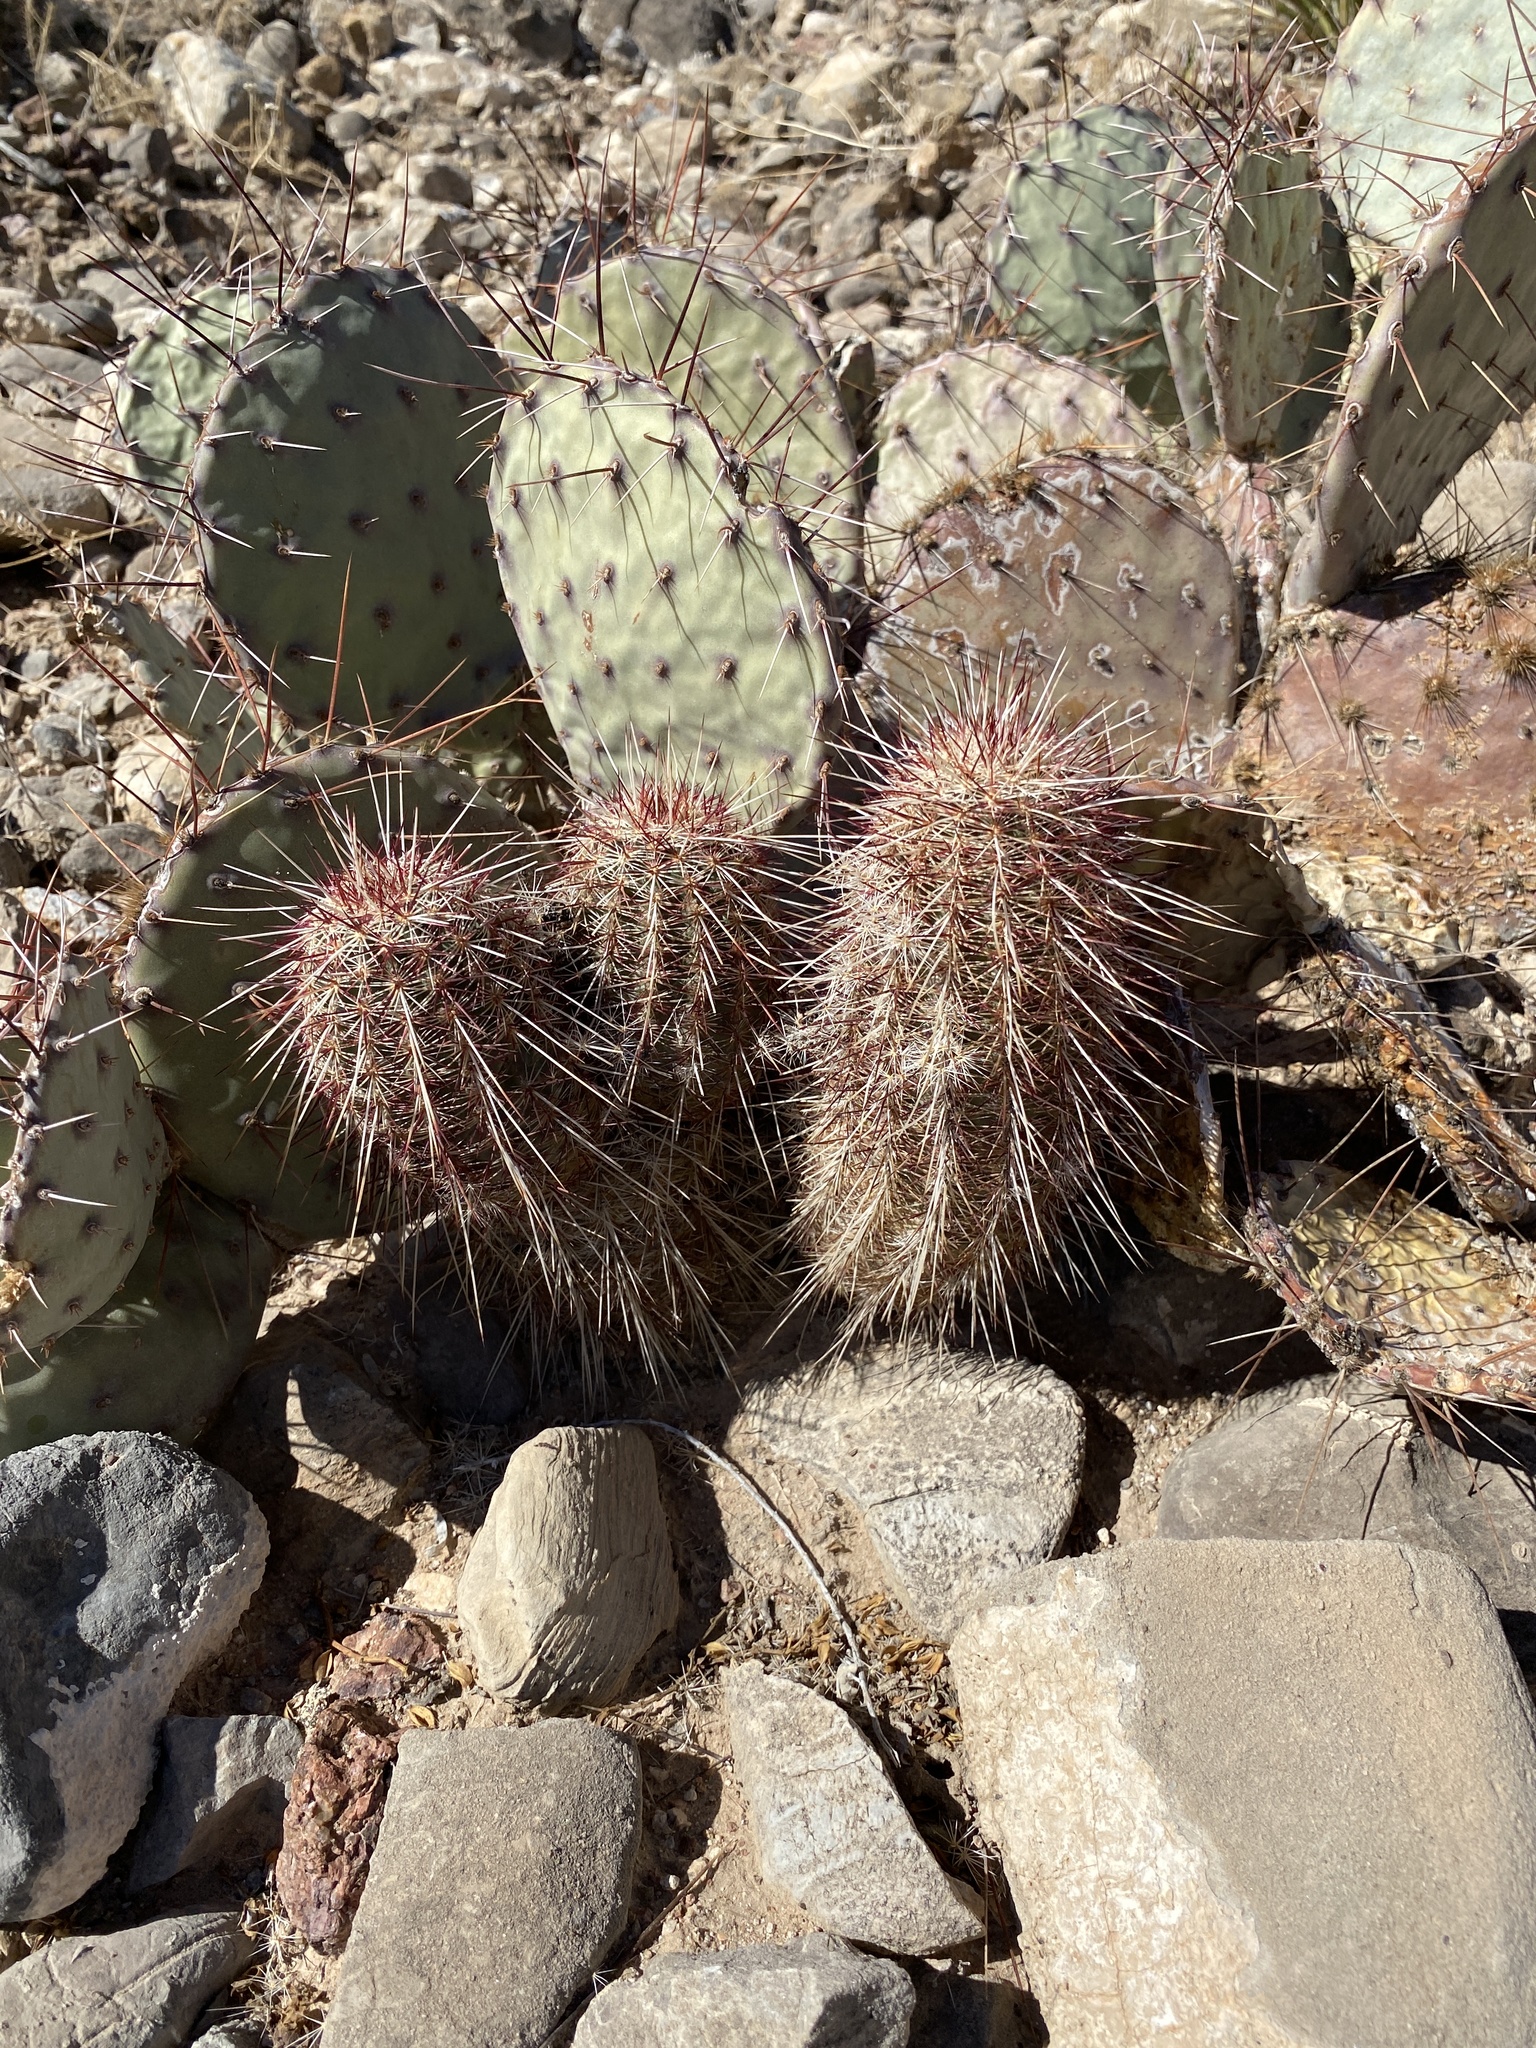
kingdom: Plantae
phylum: Tracheophyta
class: Magnoliopsida
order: Caryophyllales
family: Cactaceae
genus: Echinocereus
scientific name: Echinocereus viridiflorus
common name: Nylon hedgehog cactus
